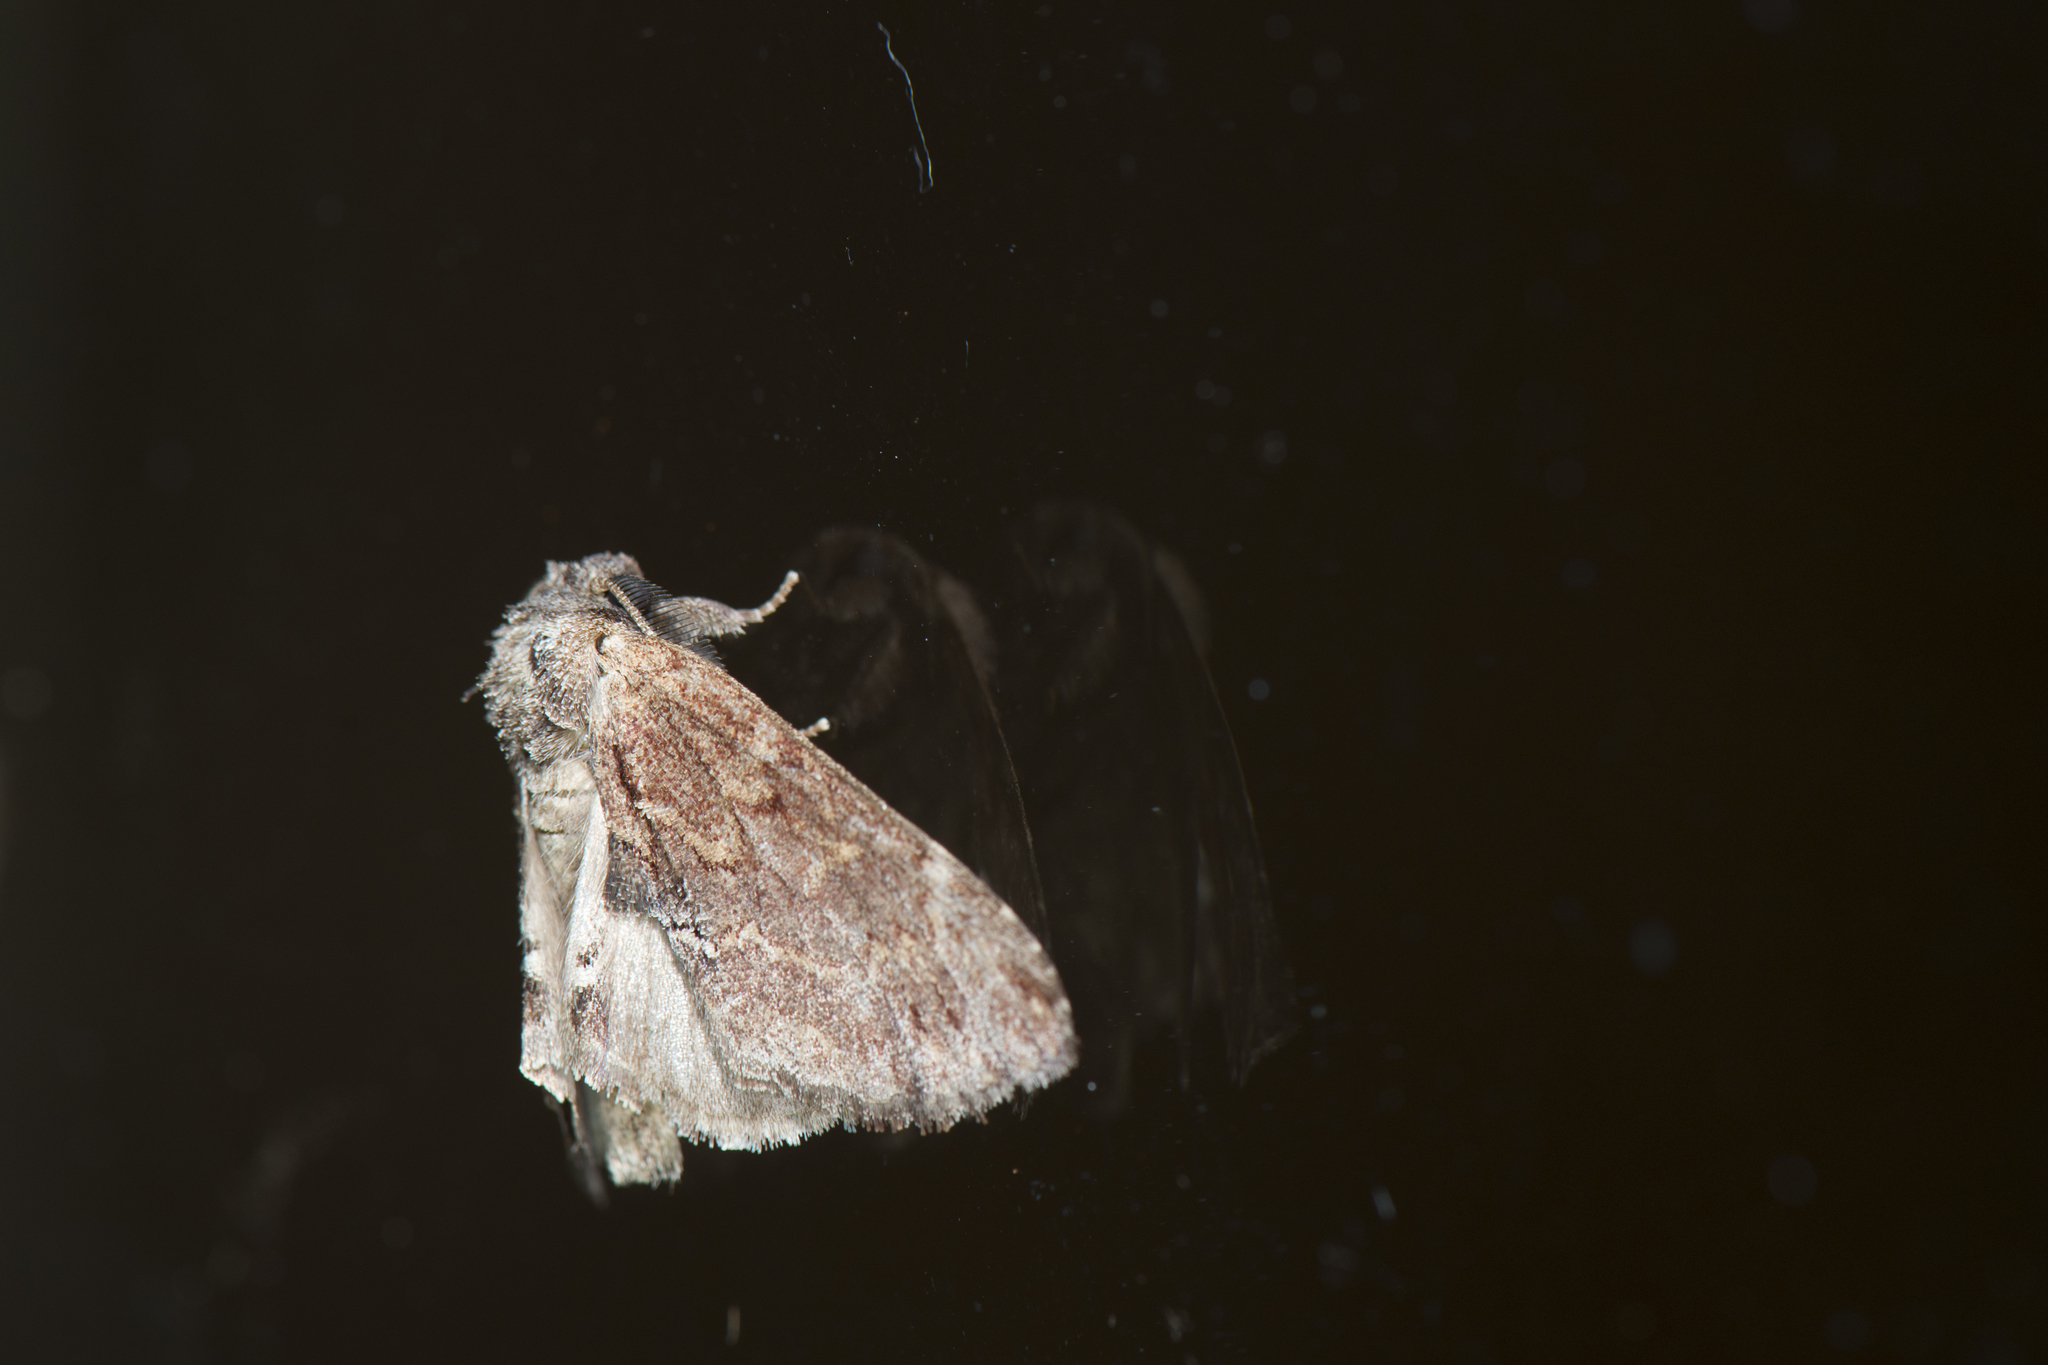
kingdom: Animalia
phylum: Arthropoda
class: Insecta
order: Lepidoptera
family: Notodontidae
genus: Lophontosia
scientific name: Lophontosia fusca
